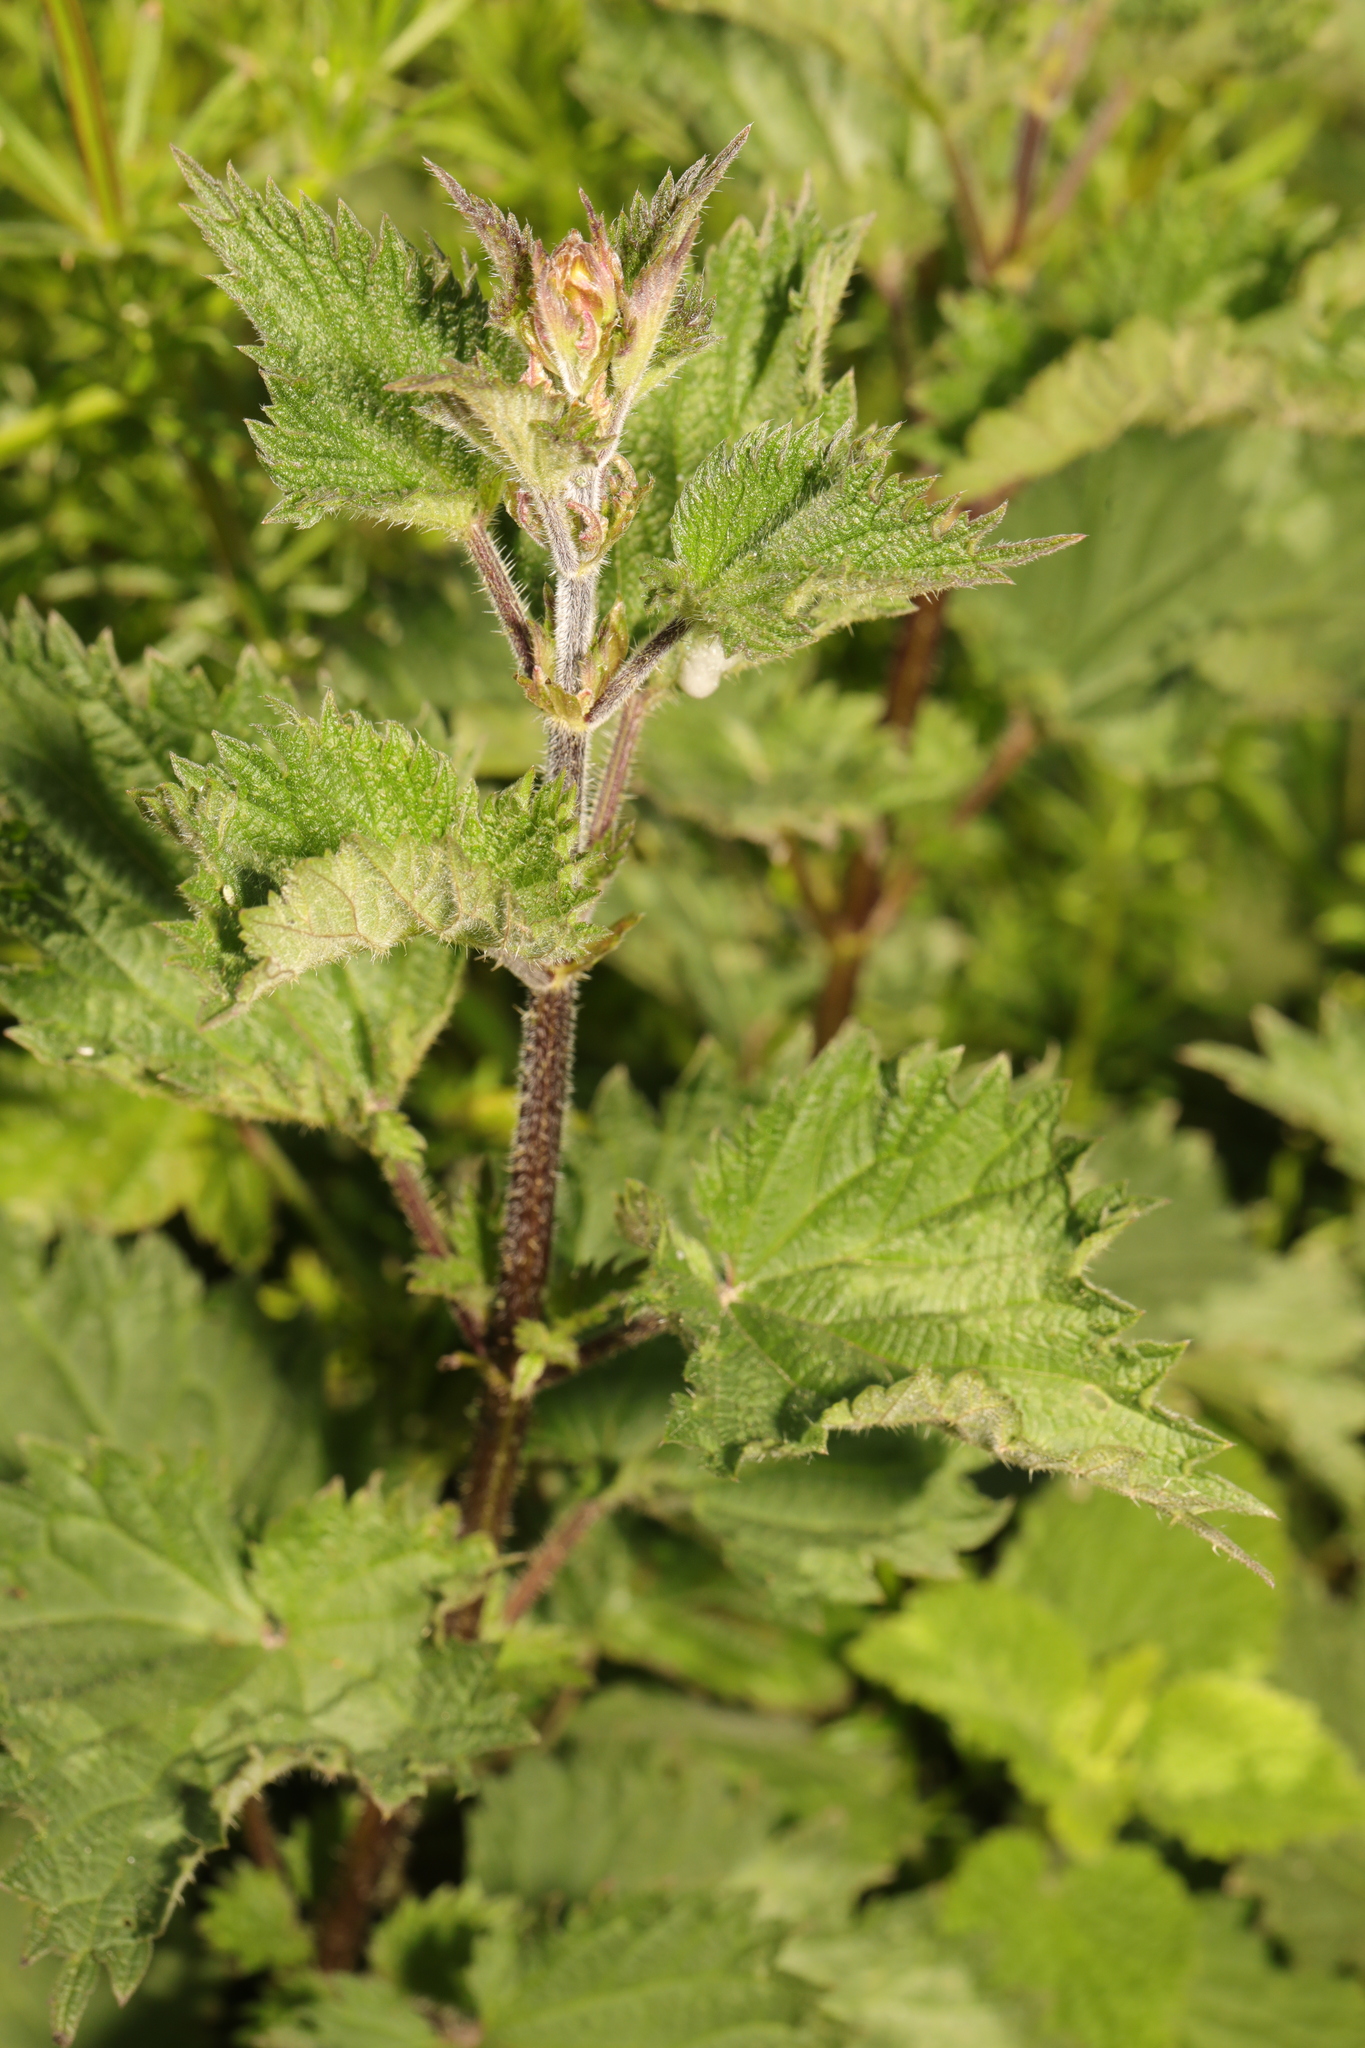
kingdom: Plantae
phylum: Tracheophyta
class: Magnoliopsida
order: Rosales
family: Urticaceae
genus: Urtica
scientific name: Urtica dioica
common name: Common nettle
